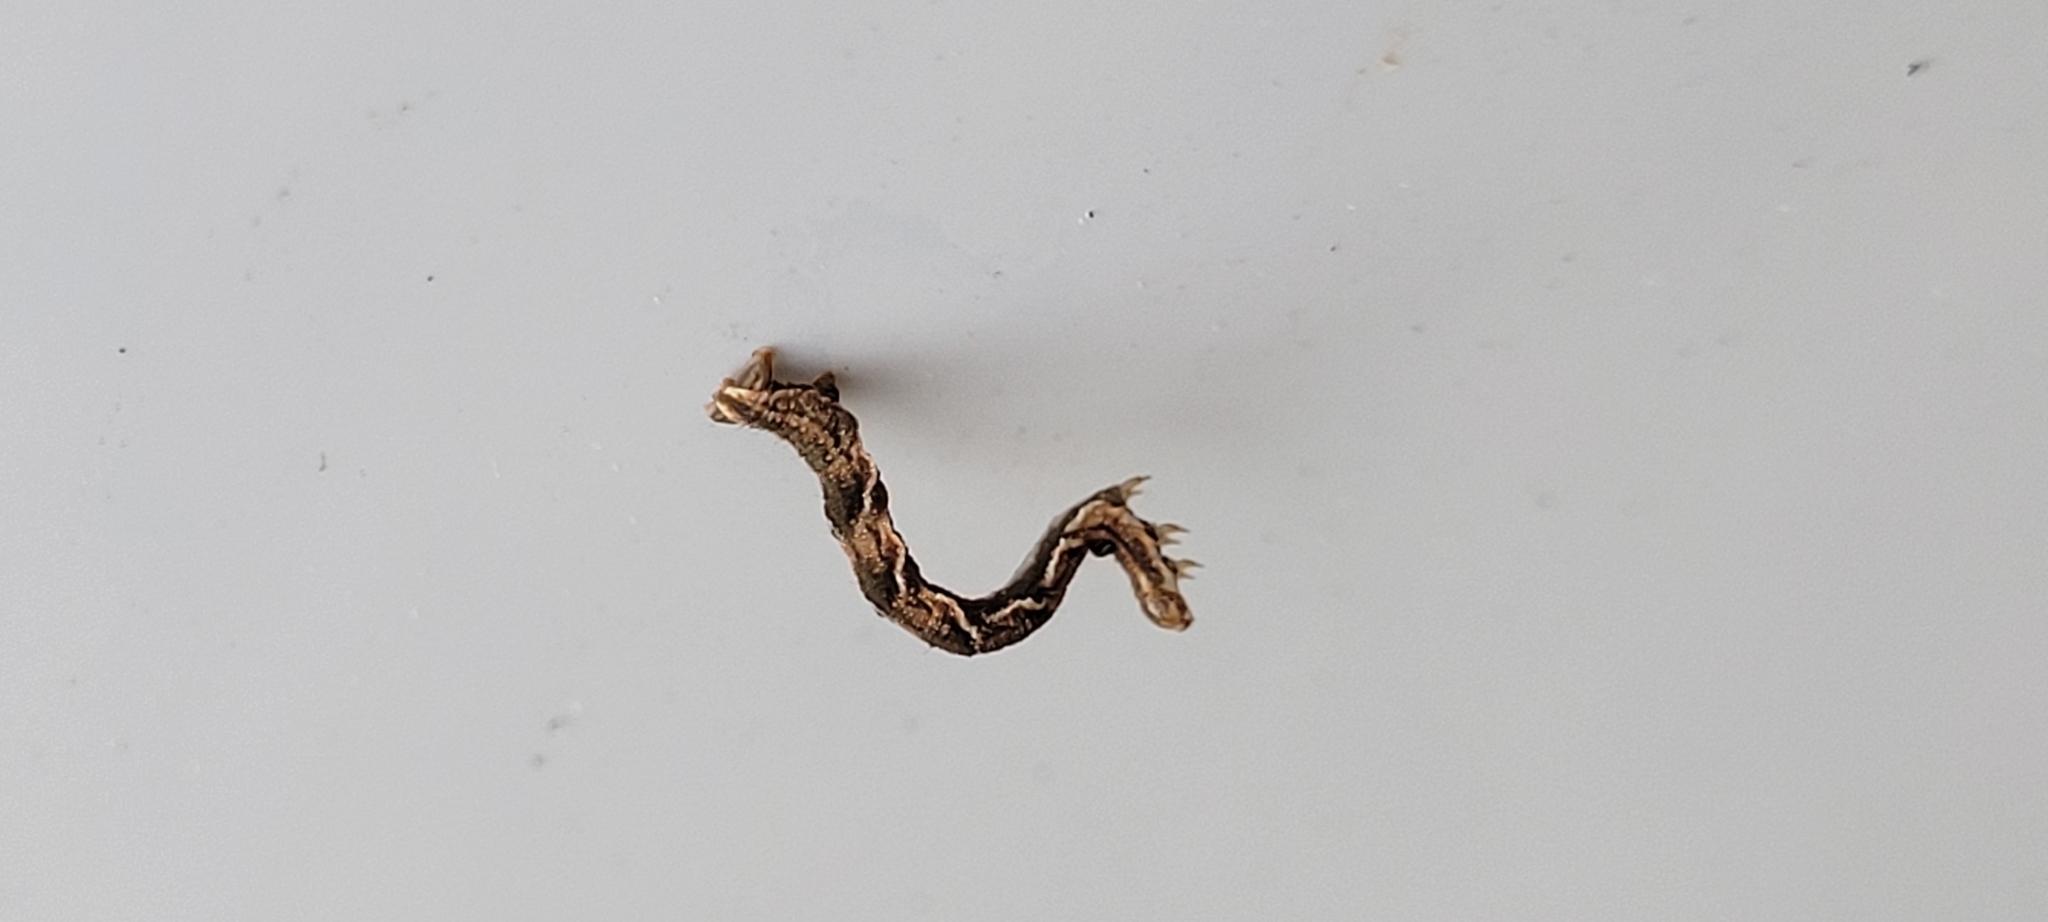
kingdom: Animalia
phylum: Arthropoda
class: Insecta
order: Lepidoptera
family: Geometridae
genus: Timandra
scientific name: Timandra amaturaria
